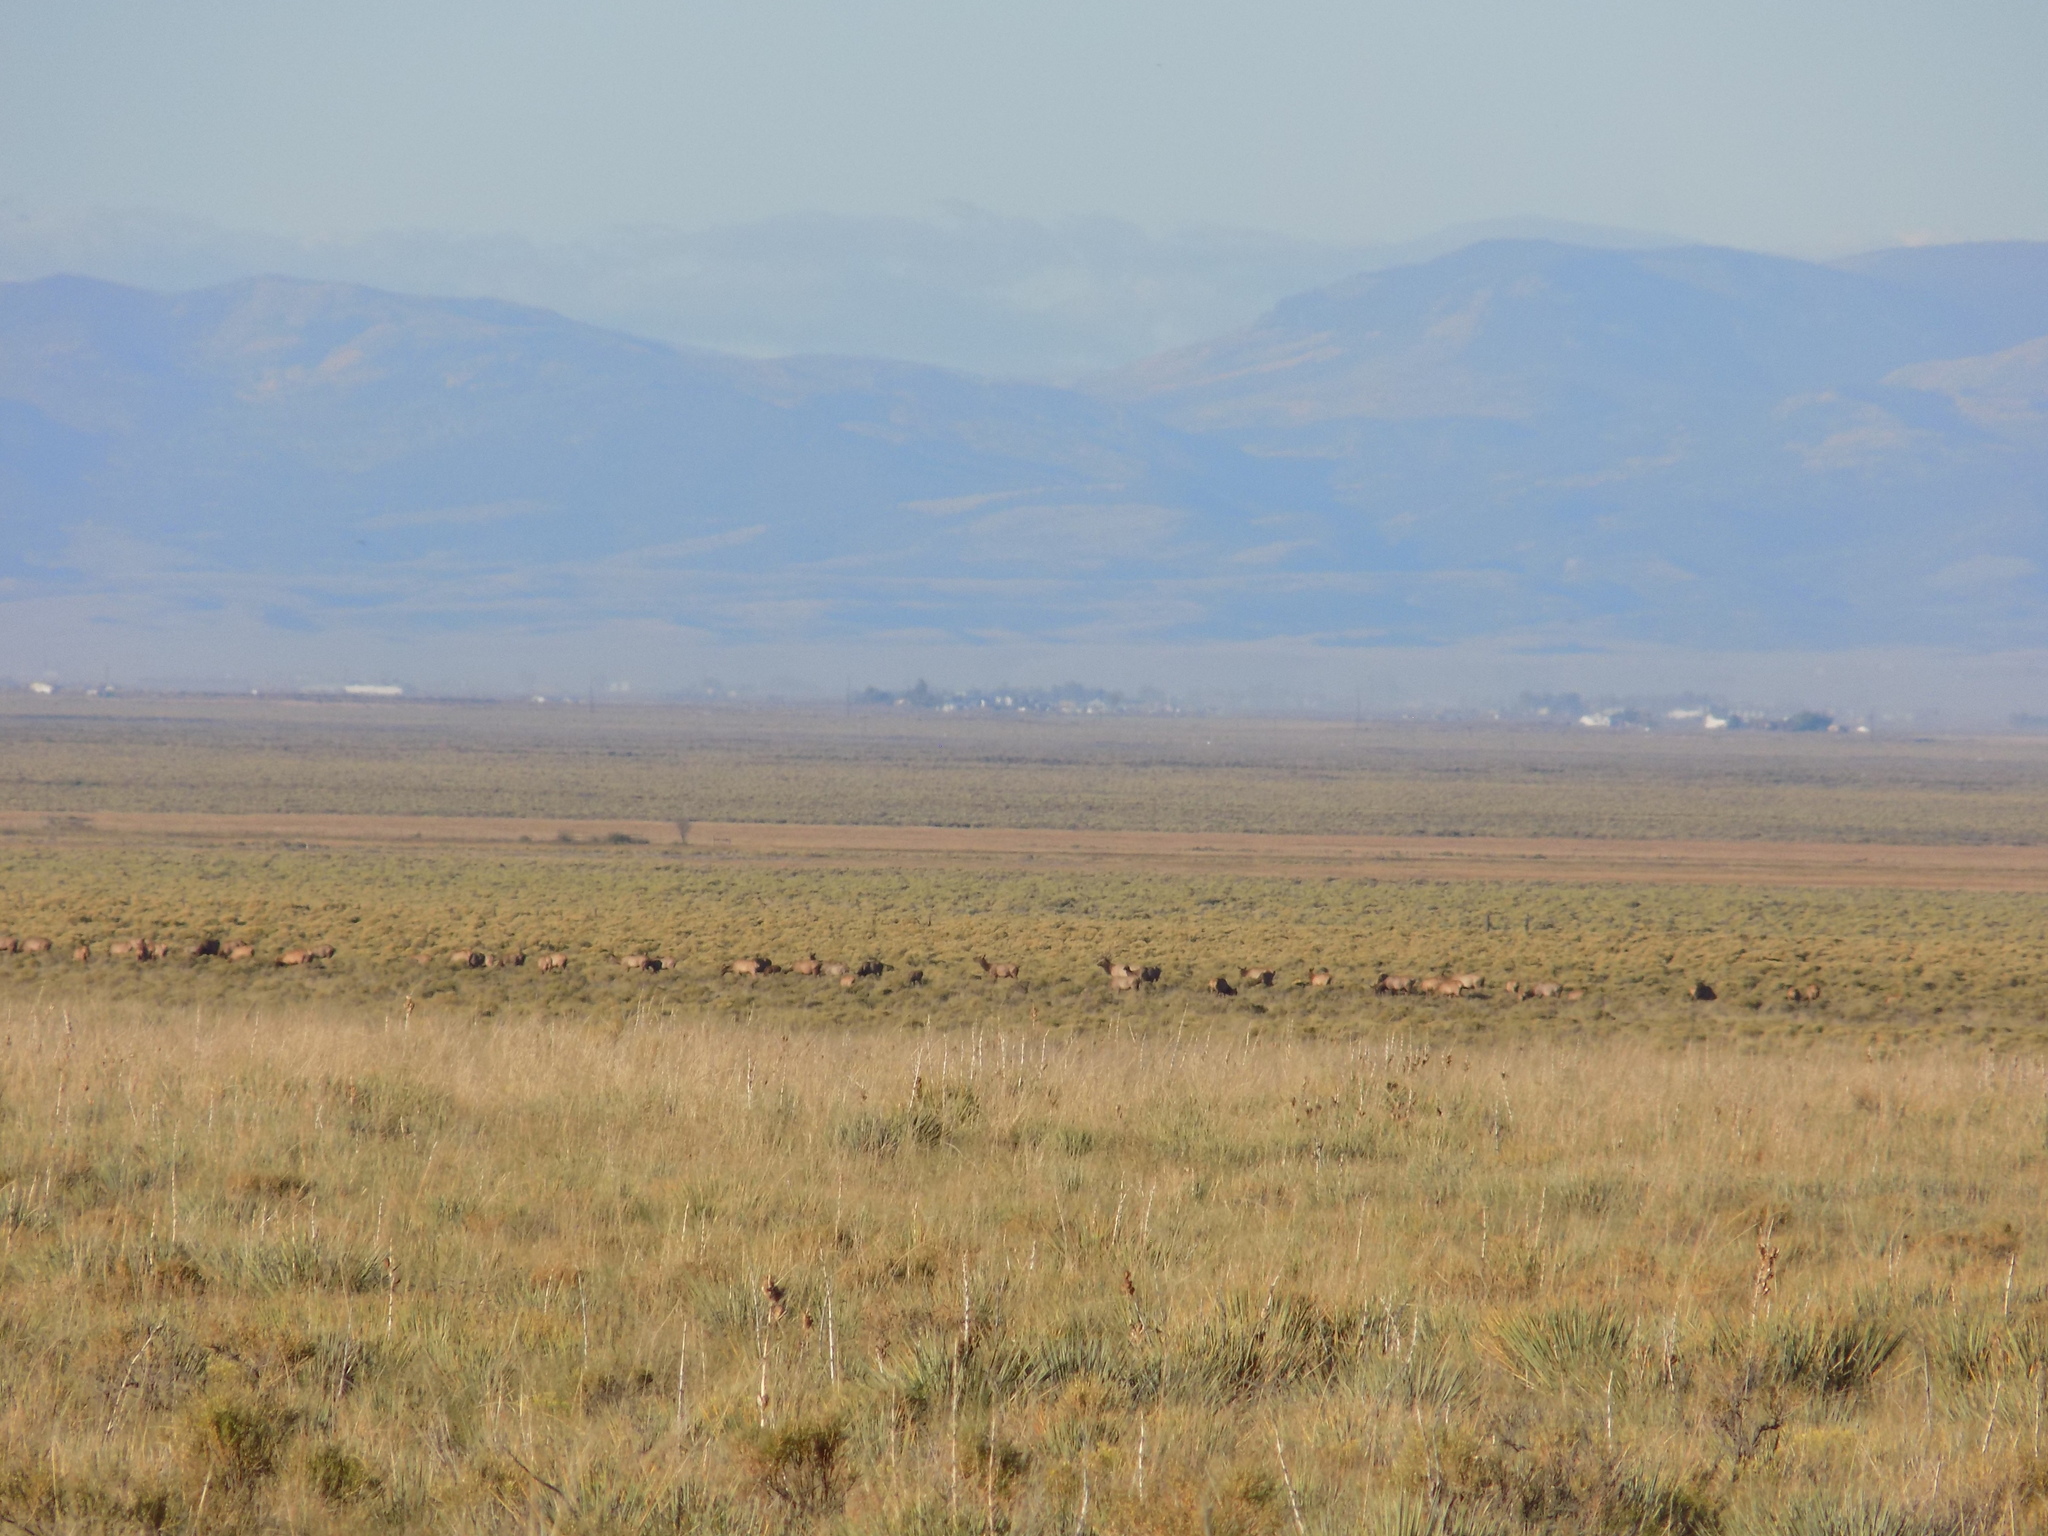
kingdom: Animalia
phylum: Chordata
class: Mammalia
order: Artiodactyla
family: Cervidae
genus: Cervus
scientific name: Cervus elaphus
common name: Red deer
